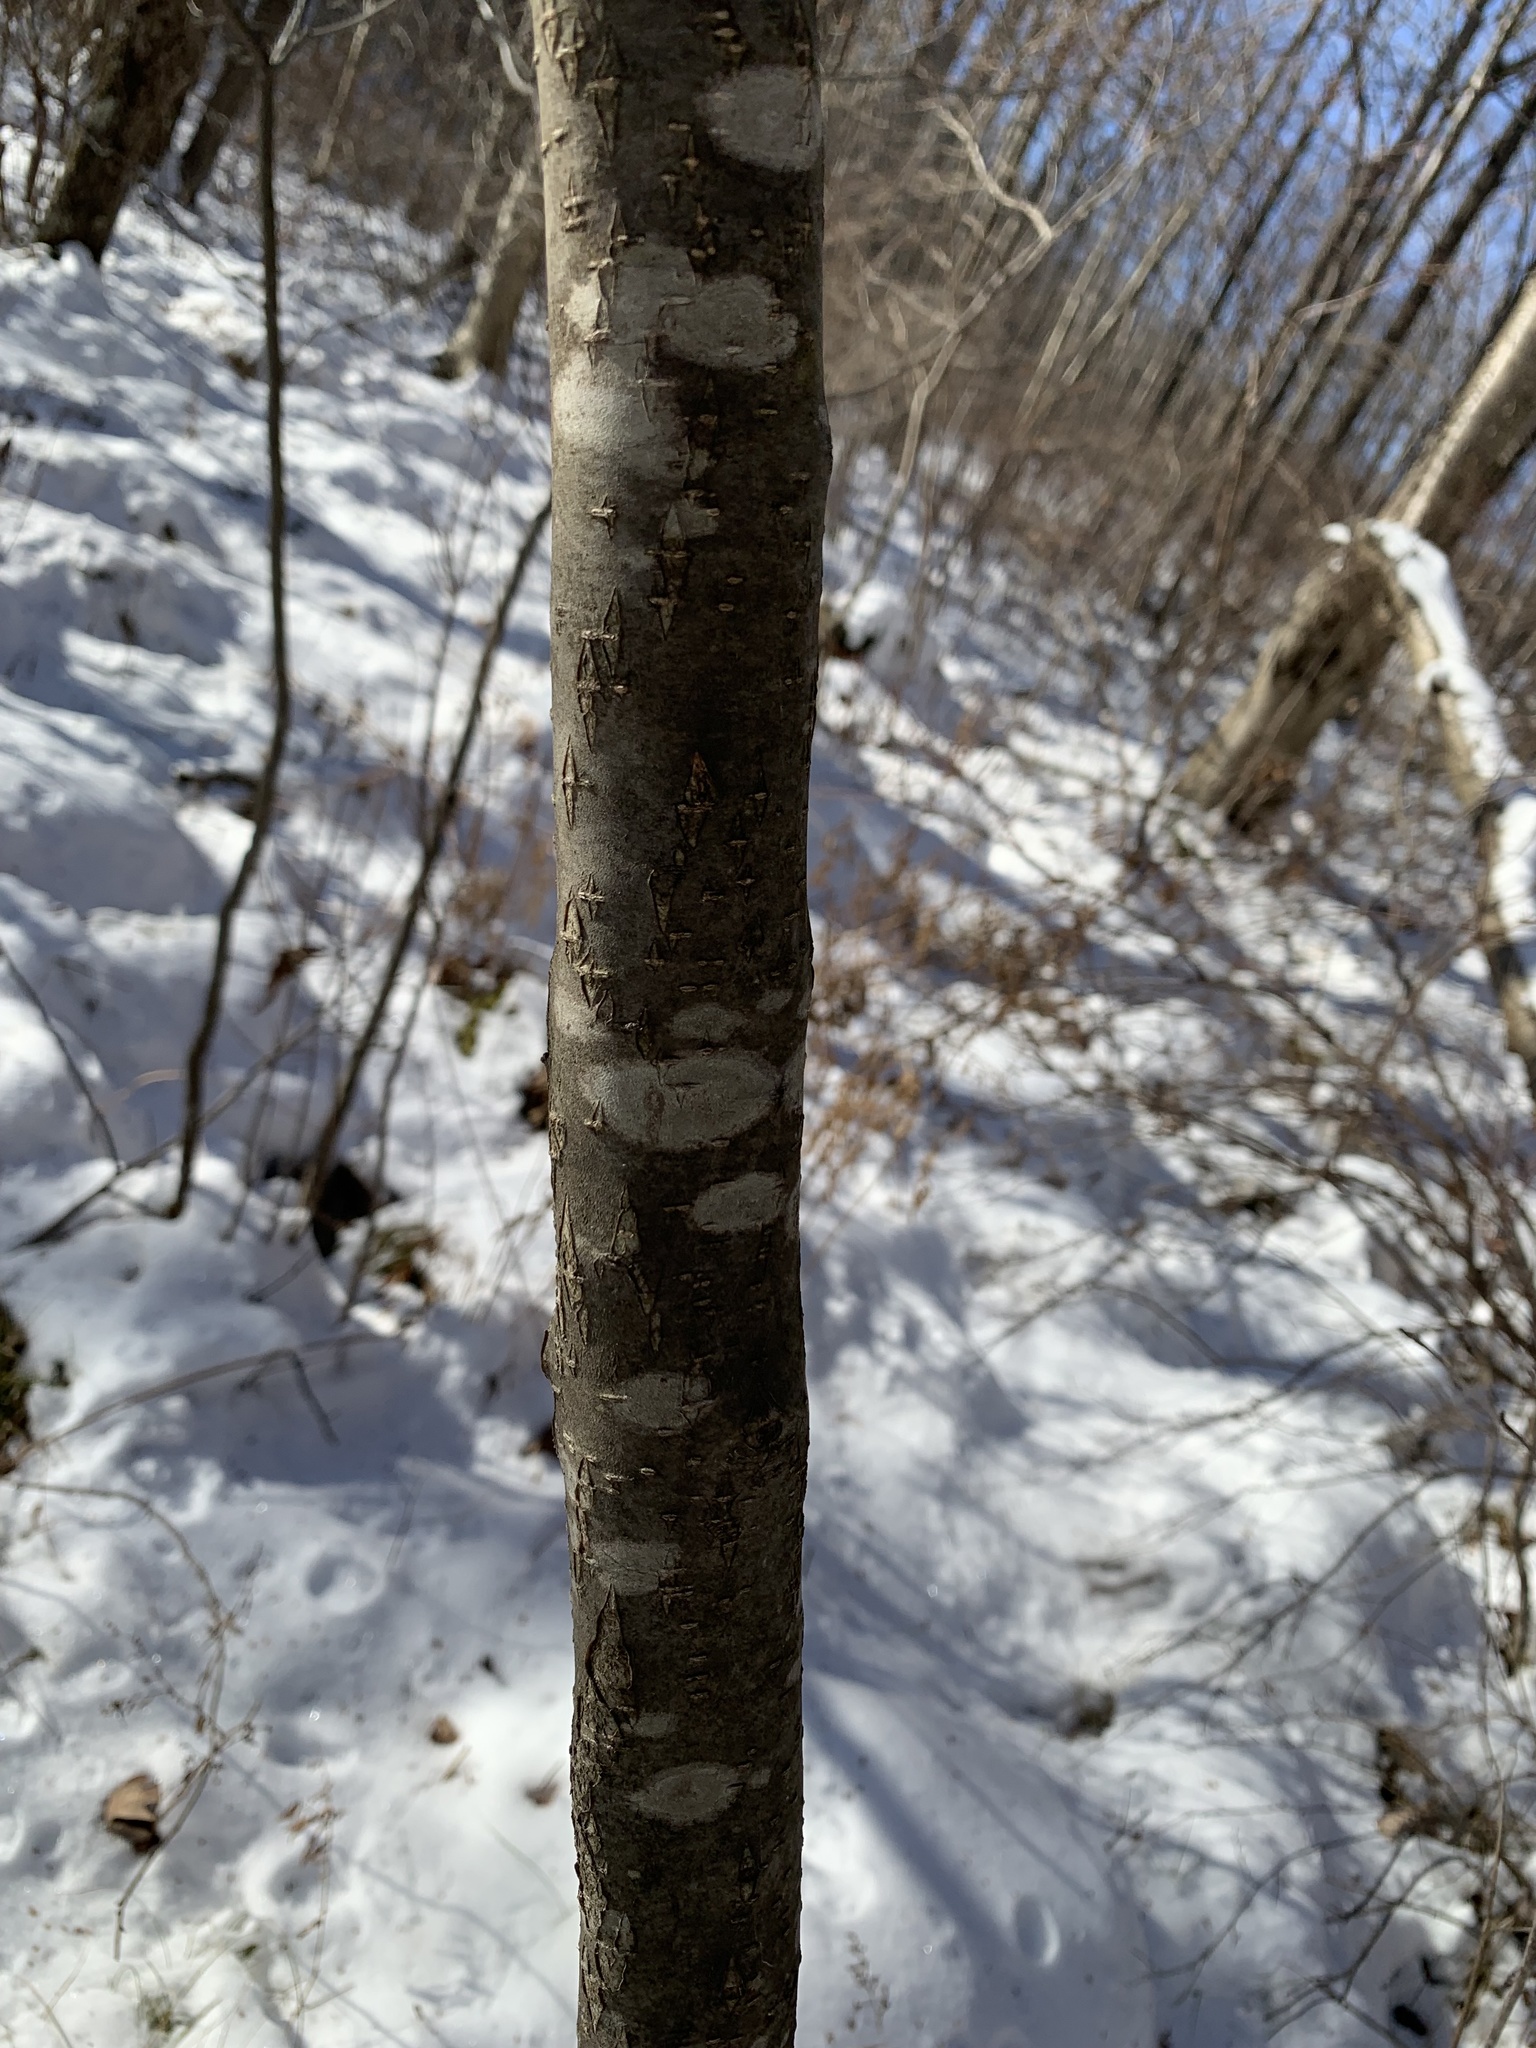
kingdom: Plantae
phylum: Tracheophyta
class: Magnoliopsida
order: Aquifoliales
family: Aquifoliaceae
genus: Ilex
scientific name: Ilex verticillata
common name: Virginia winterberry
